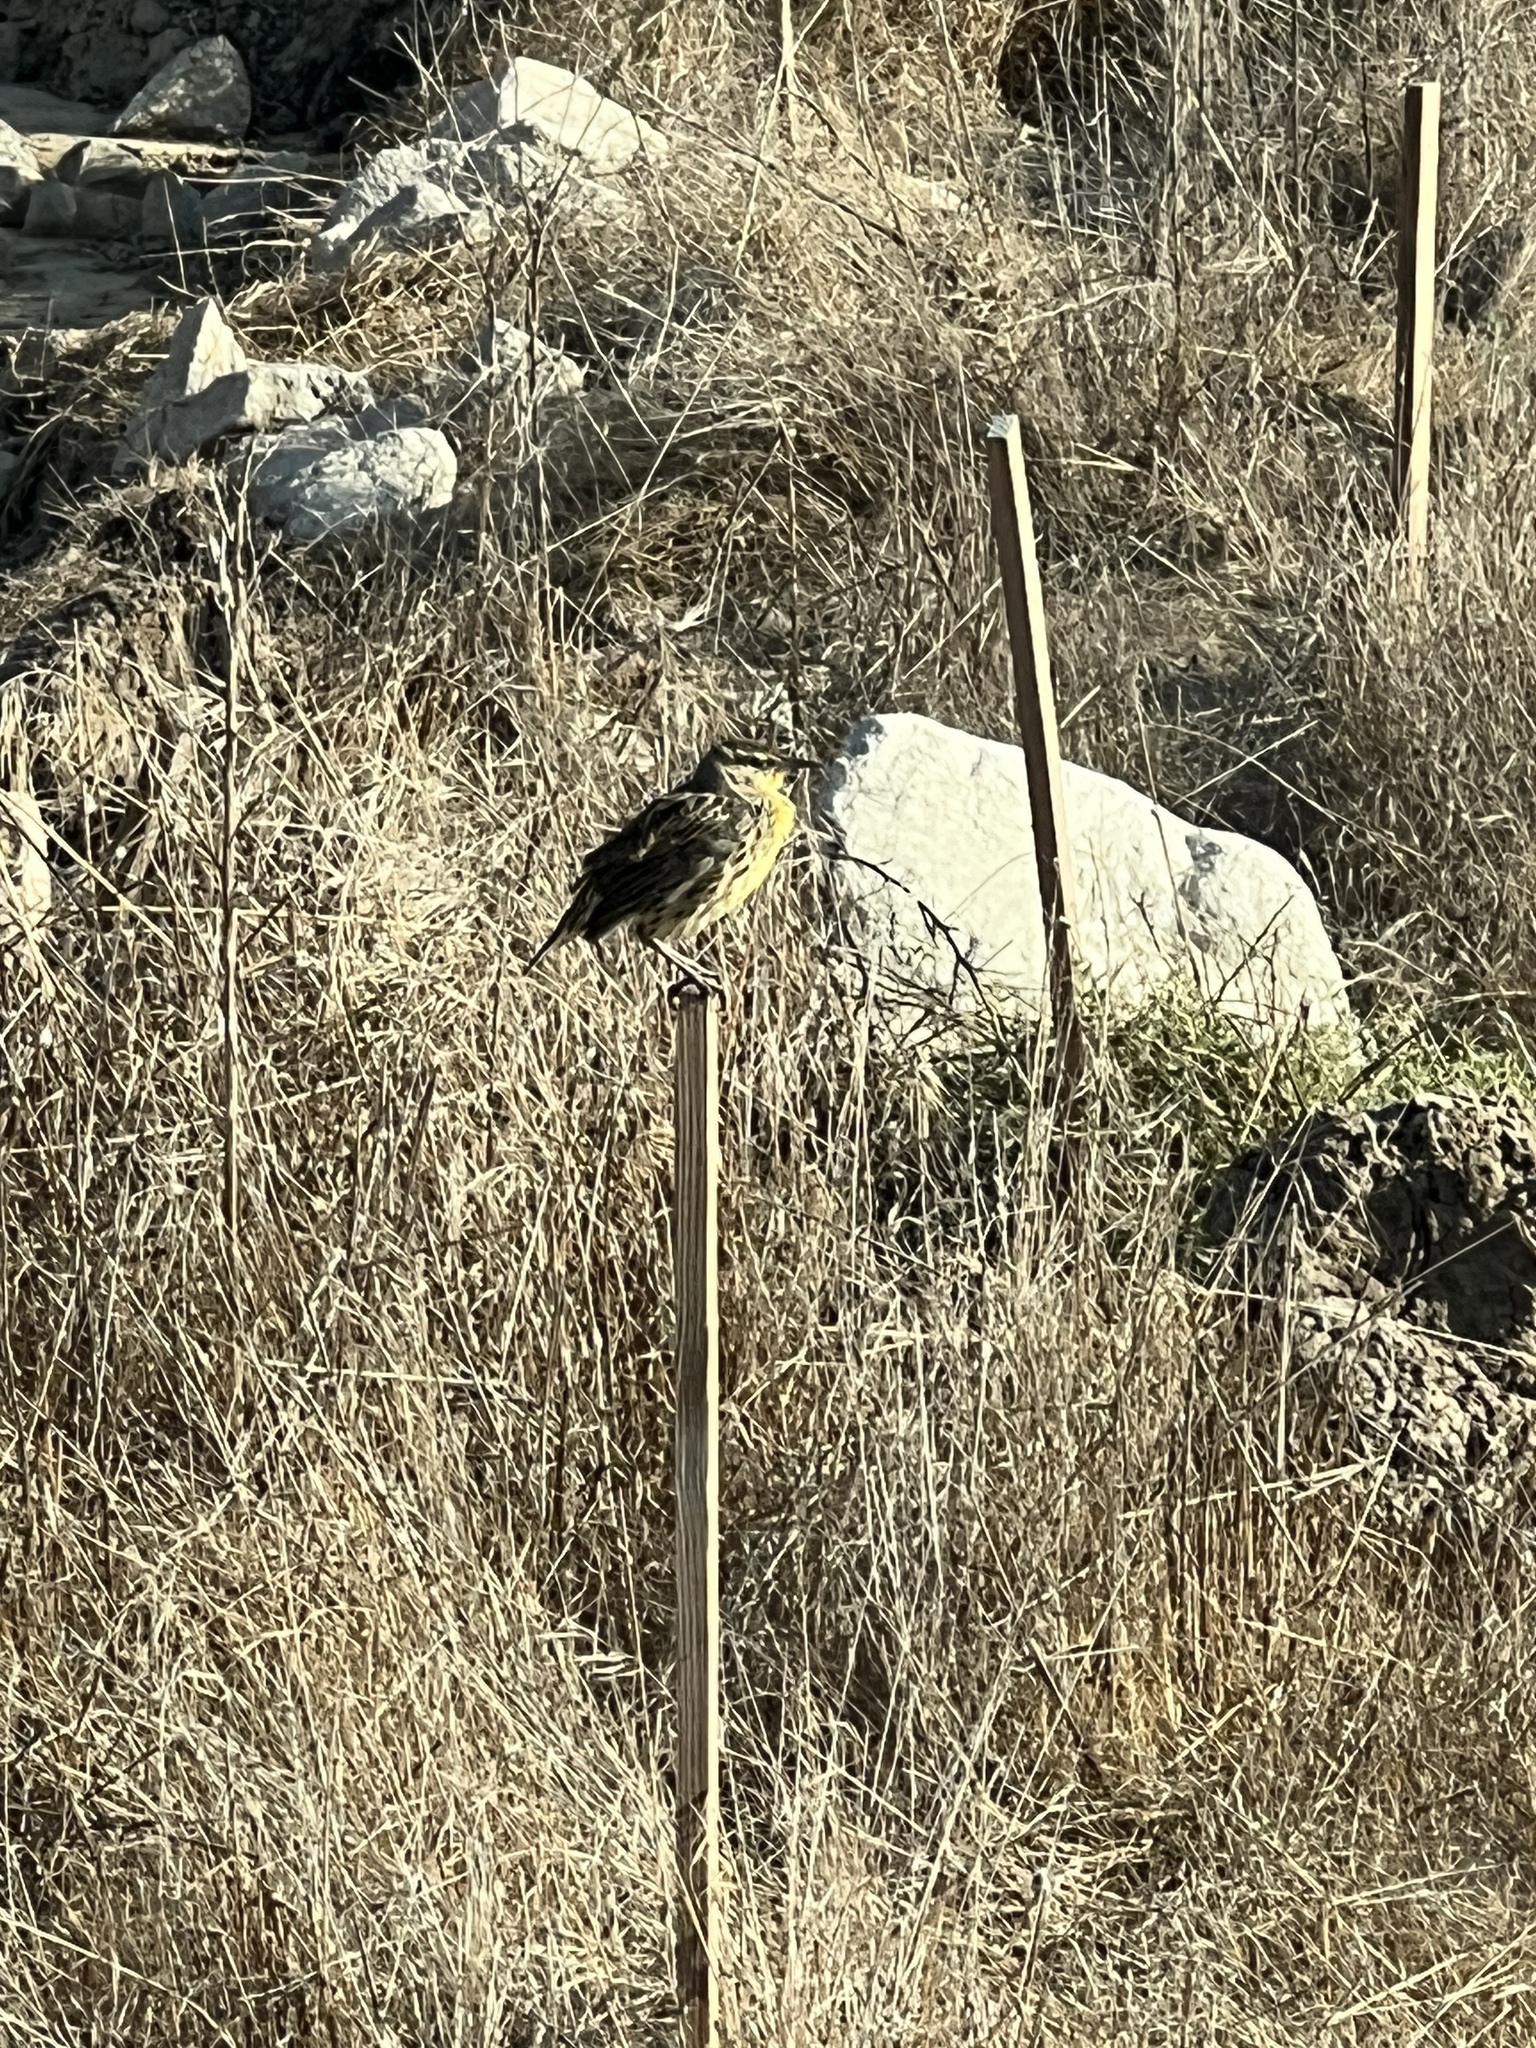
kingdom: Animalia
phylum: Chordata
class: Aves
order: Passeriformes
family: Icteridae
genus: Sturnella
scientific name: Sturnella neglecta
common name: Western meadowlark
